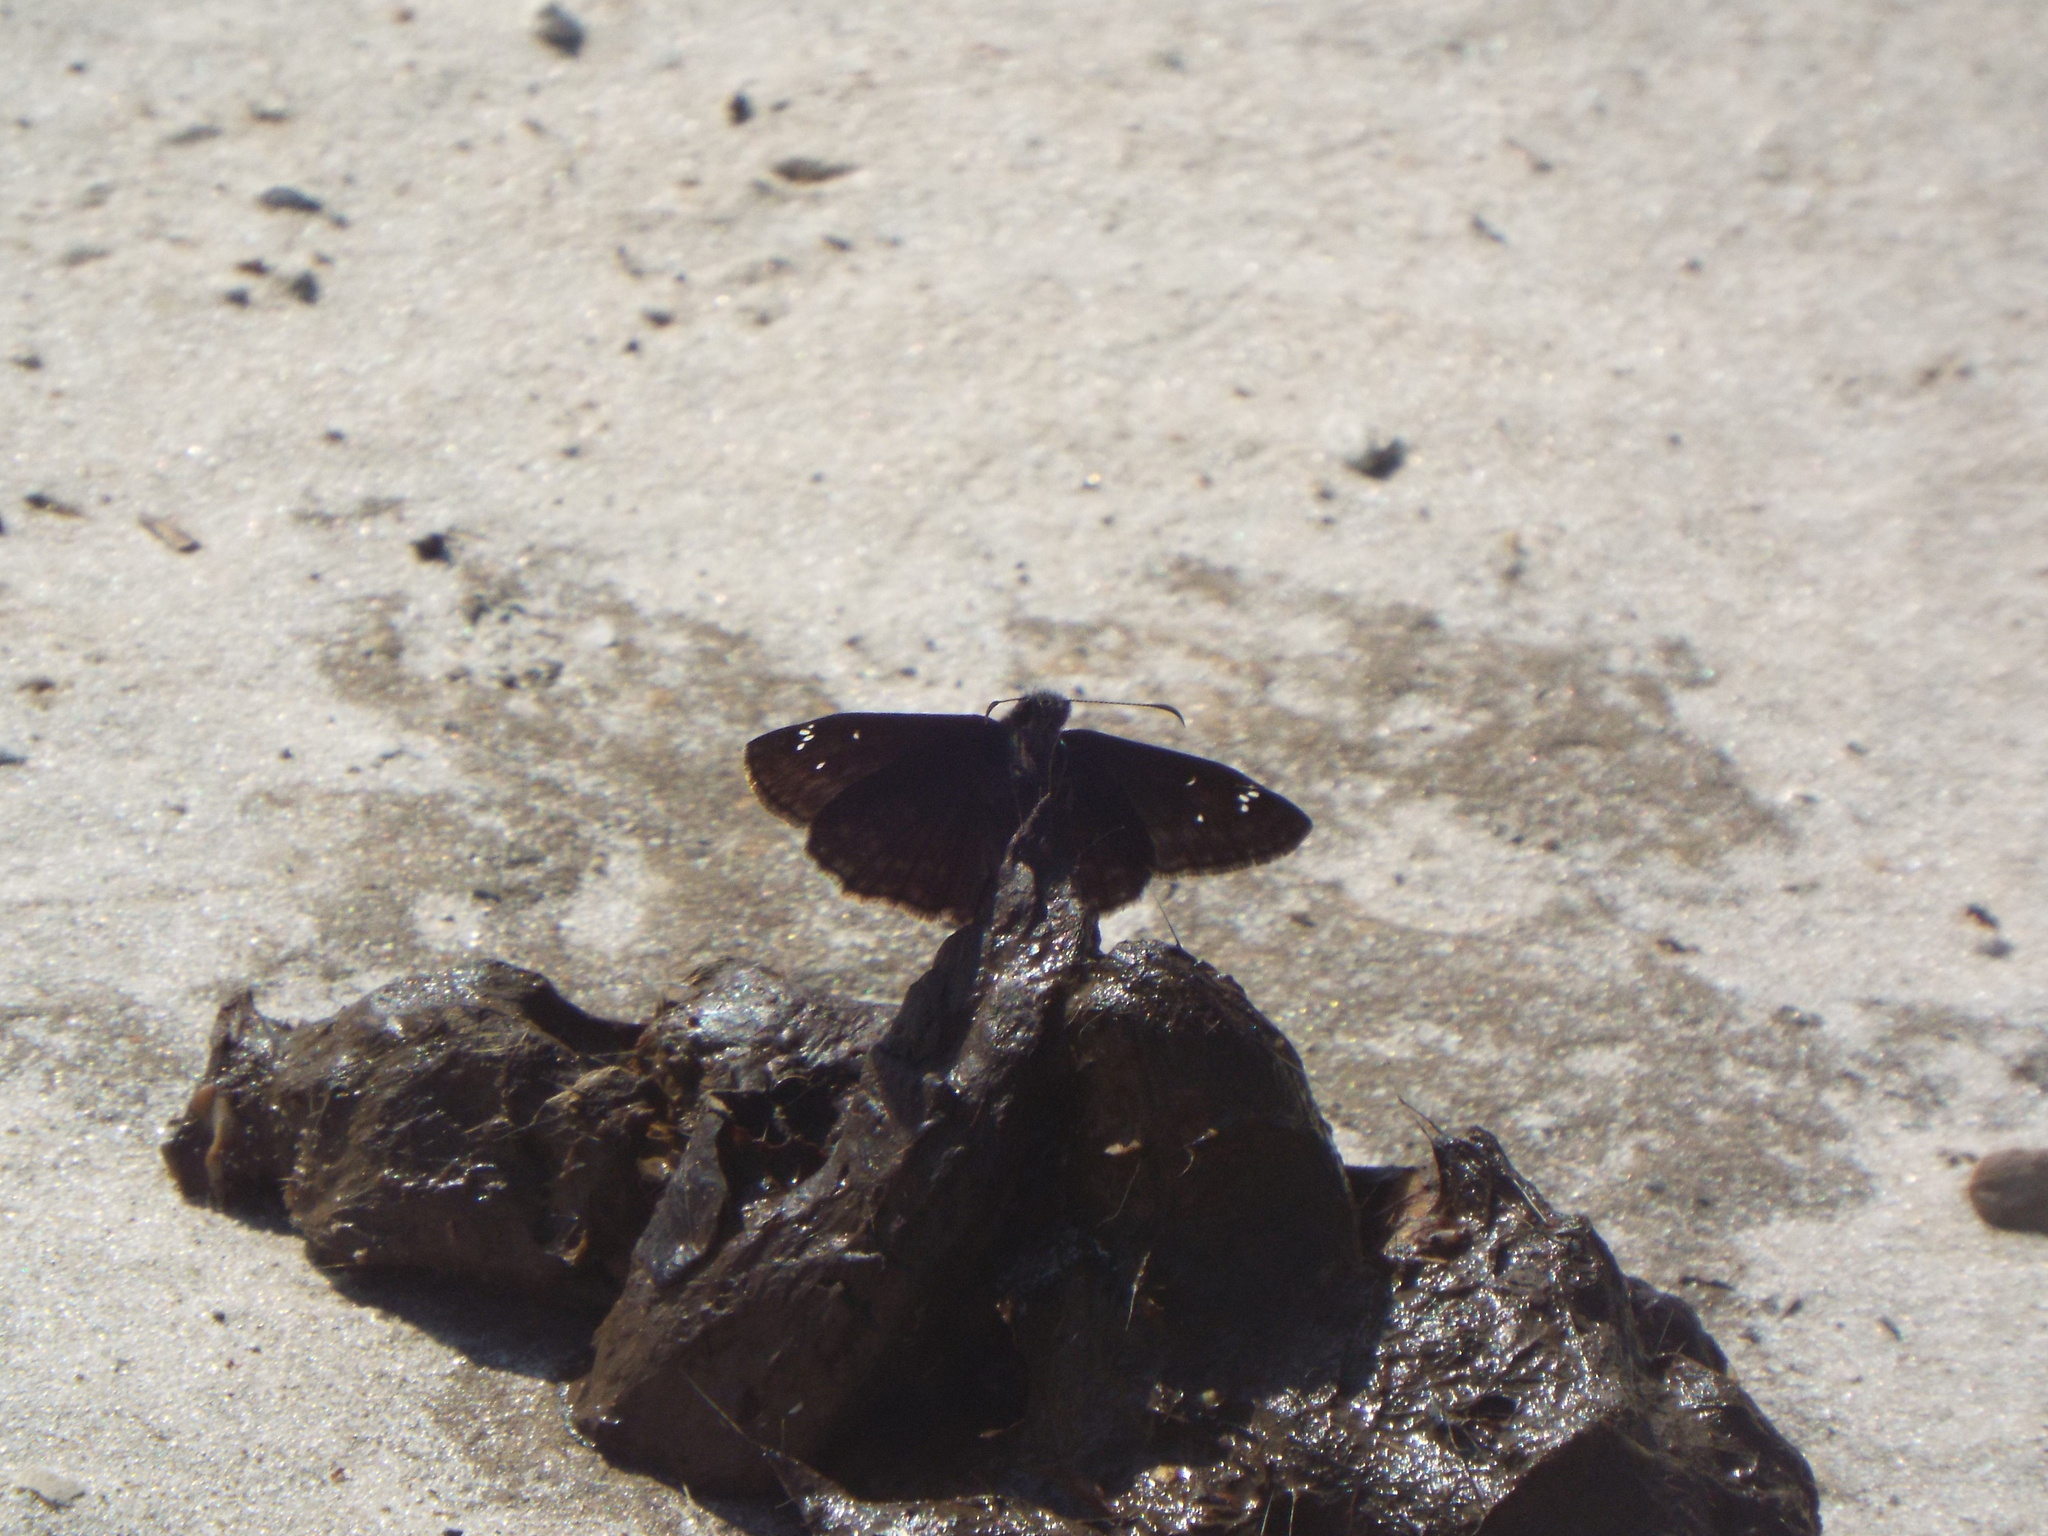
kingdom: Animalia
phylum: Arthropoda
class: Insecta
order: Lepidoptera
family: Hesperiidae
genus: Erynnis
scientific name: Erynnis horatius
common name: Horace's duskywing
